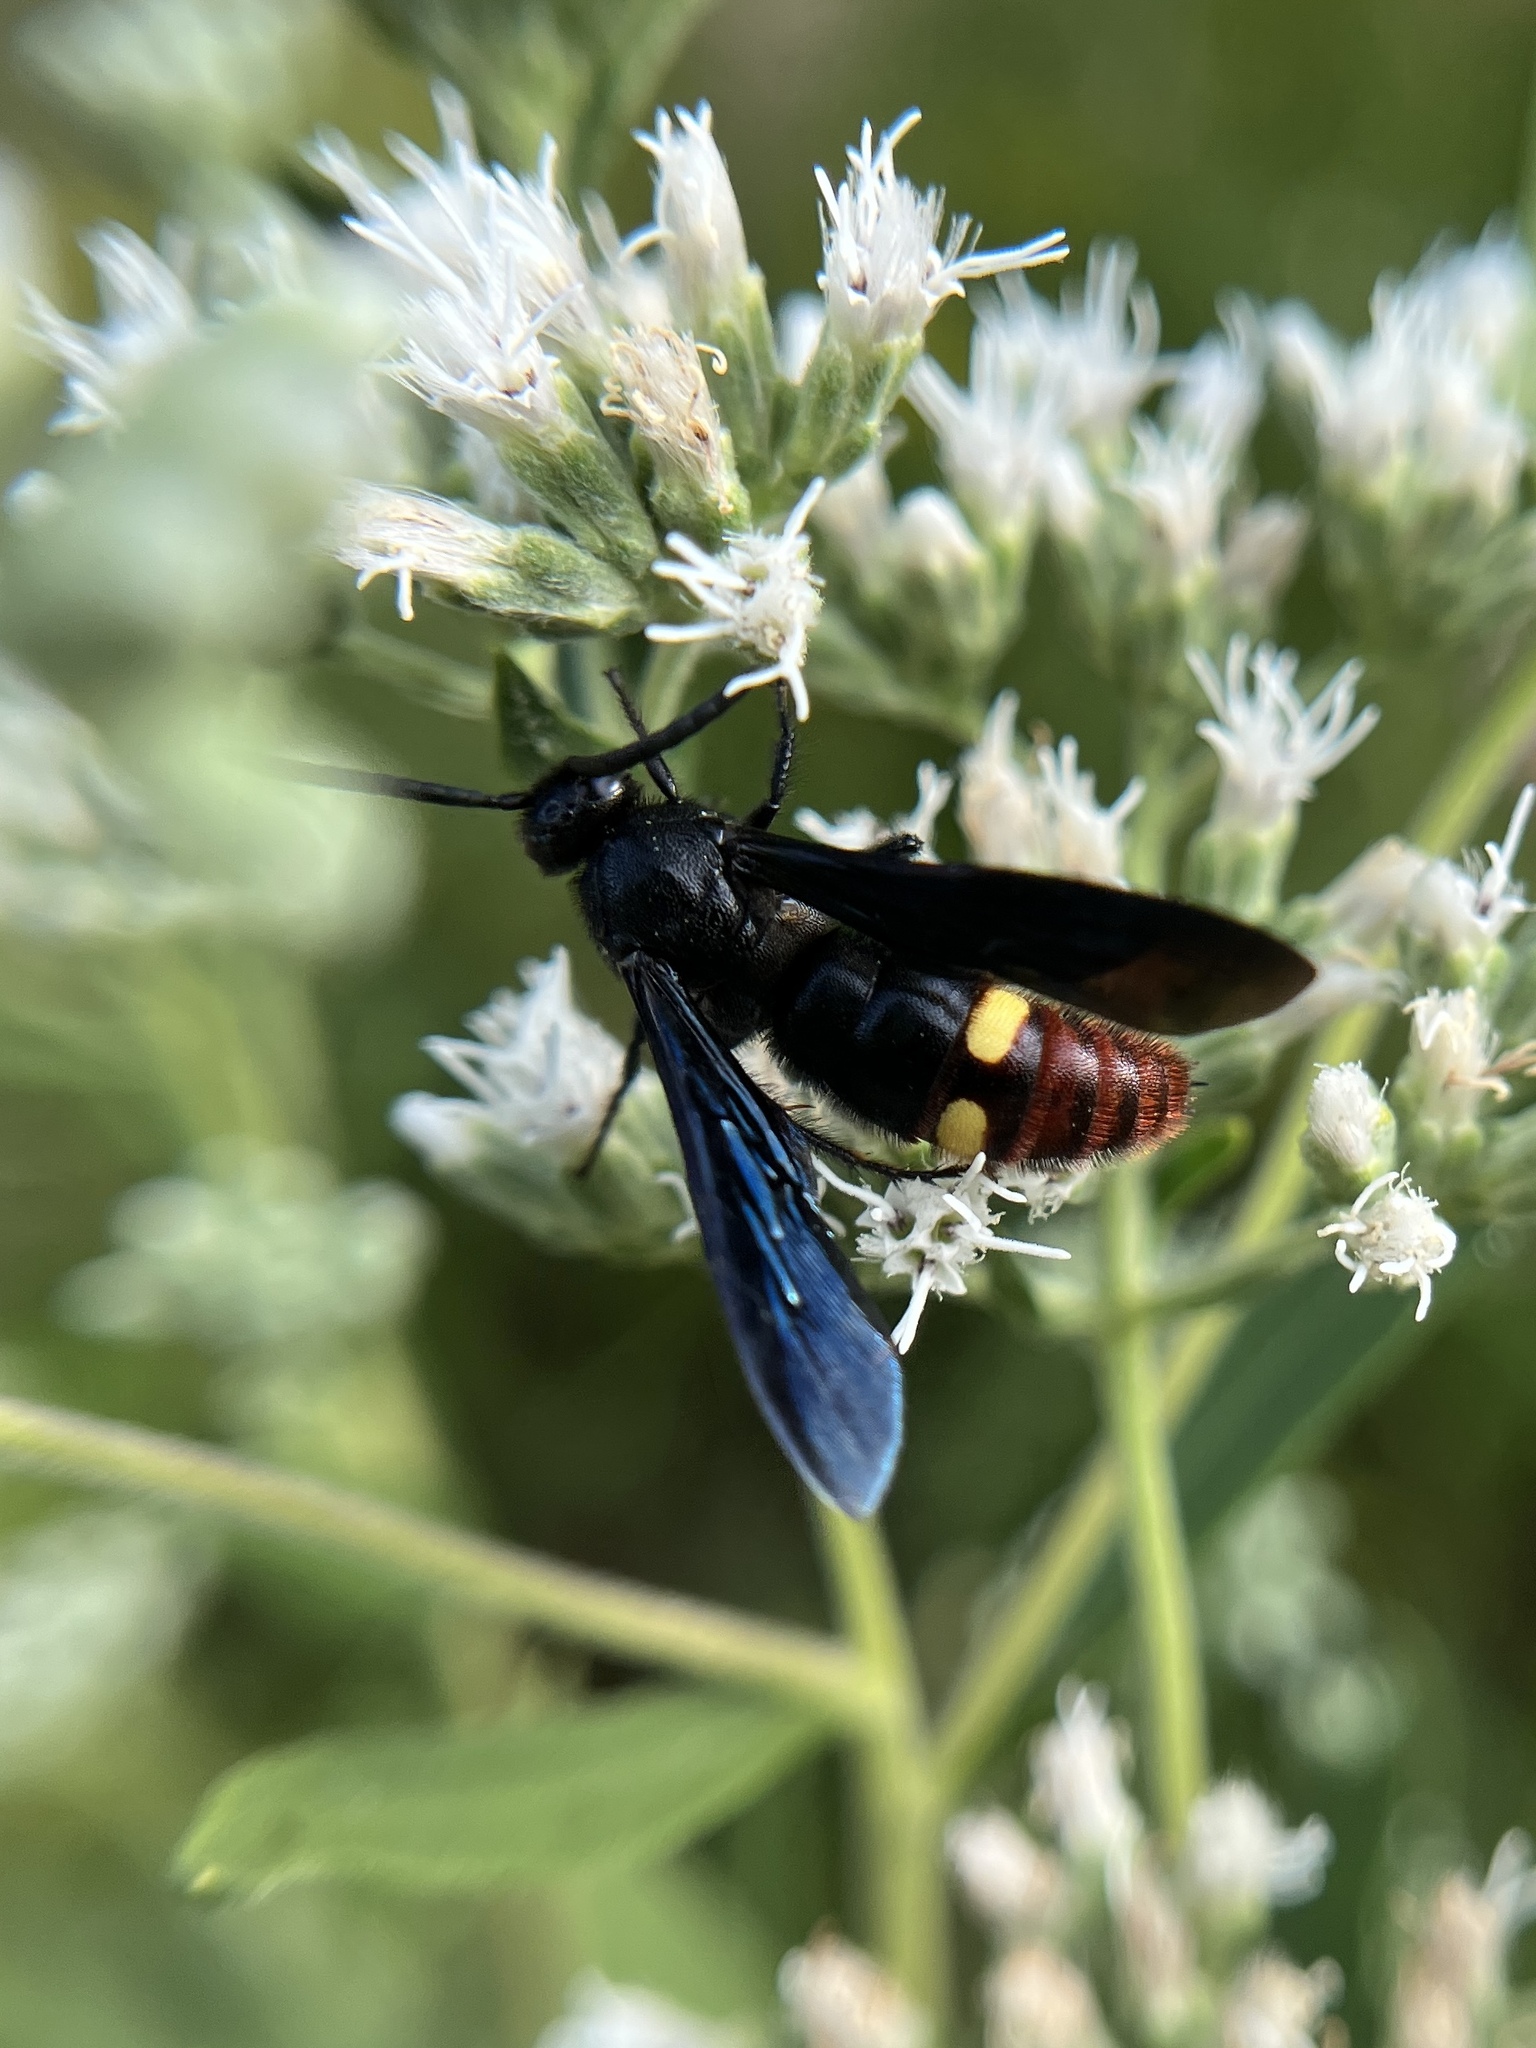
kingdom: Animalia
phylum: Arthropoda
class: Insecta
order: Hymenoptera
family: Scoliidae
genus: Scolia
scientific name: Scolia dubia
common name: Blue-winged scoliid wasp
